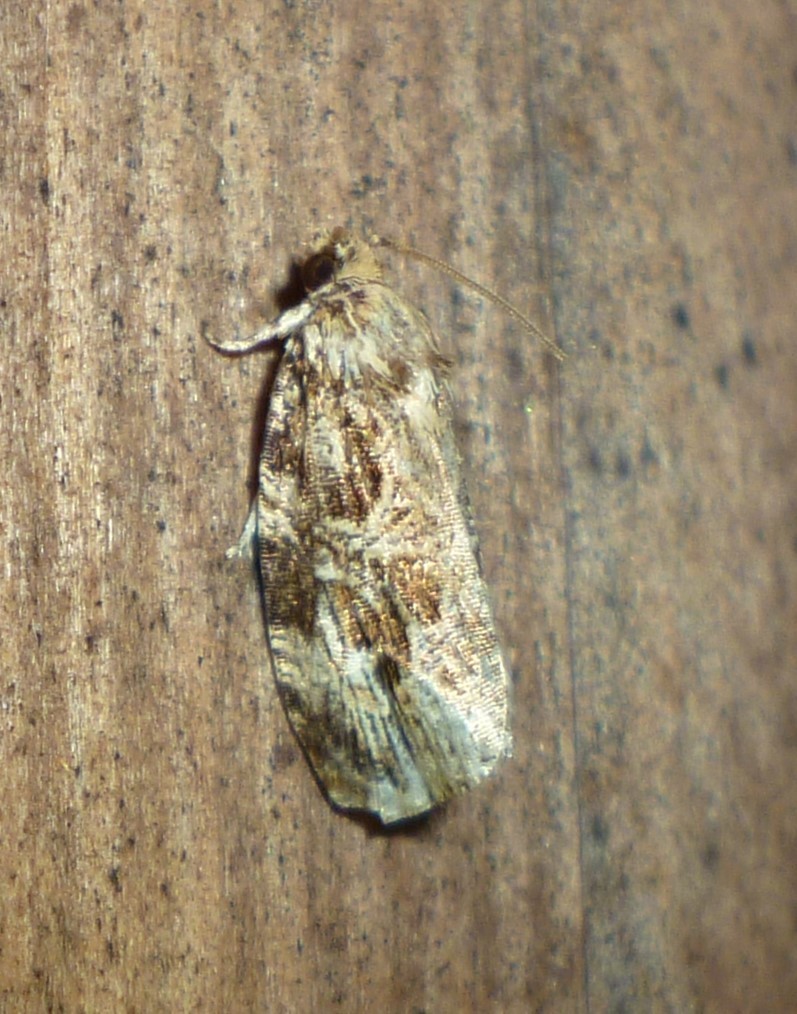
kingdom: Animalia
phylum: Arthropoda
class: Insecta
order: Lepidoptera
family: Tortricidae
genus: Phaecasiophora
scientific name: Phaecasiophora confixana
